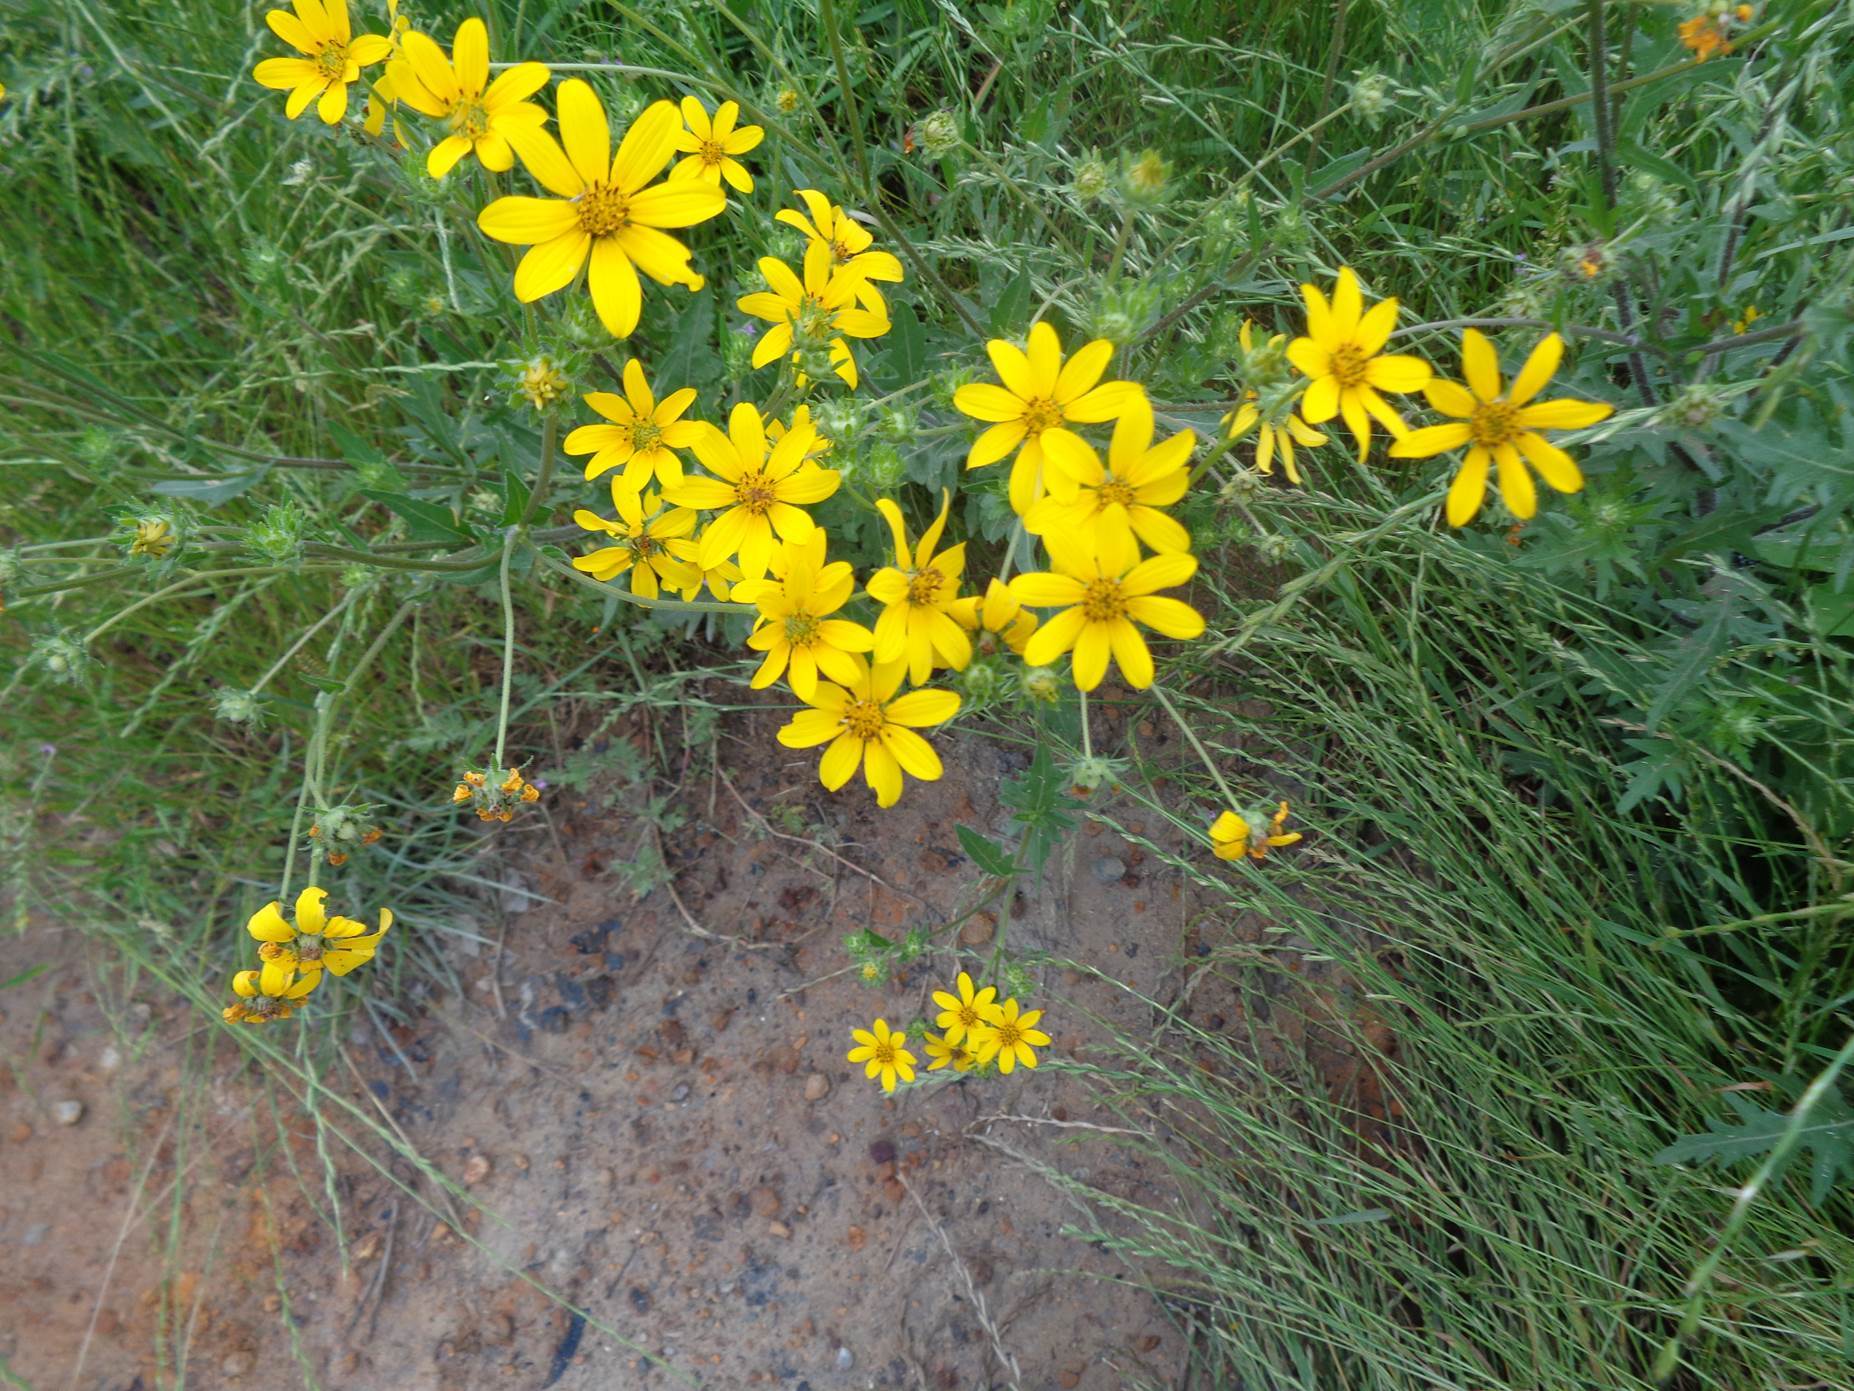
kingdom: Plantae
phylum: Tracheophyta
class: Magnoliopsida
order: Asterales
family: Asteraceae
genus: Engelmannia
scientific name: Engelmannia peristenia
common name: Engelmann's daisy
